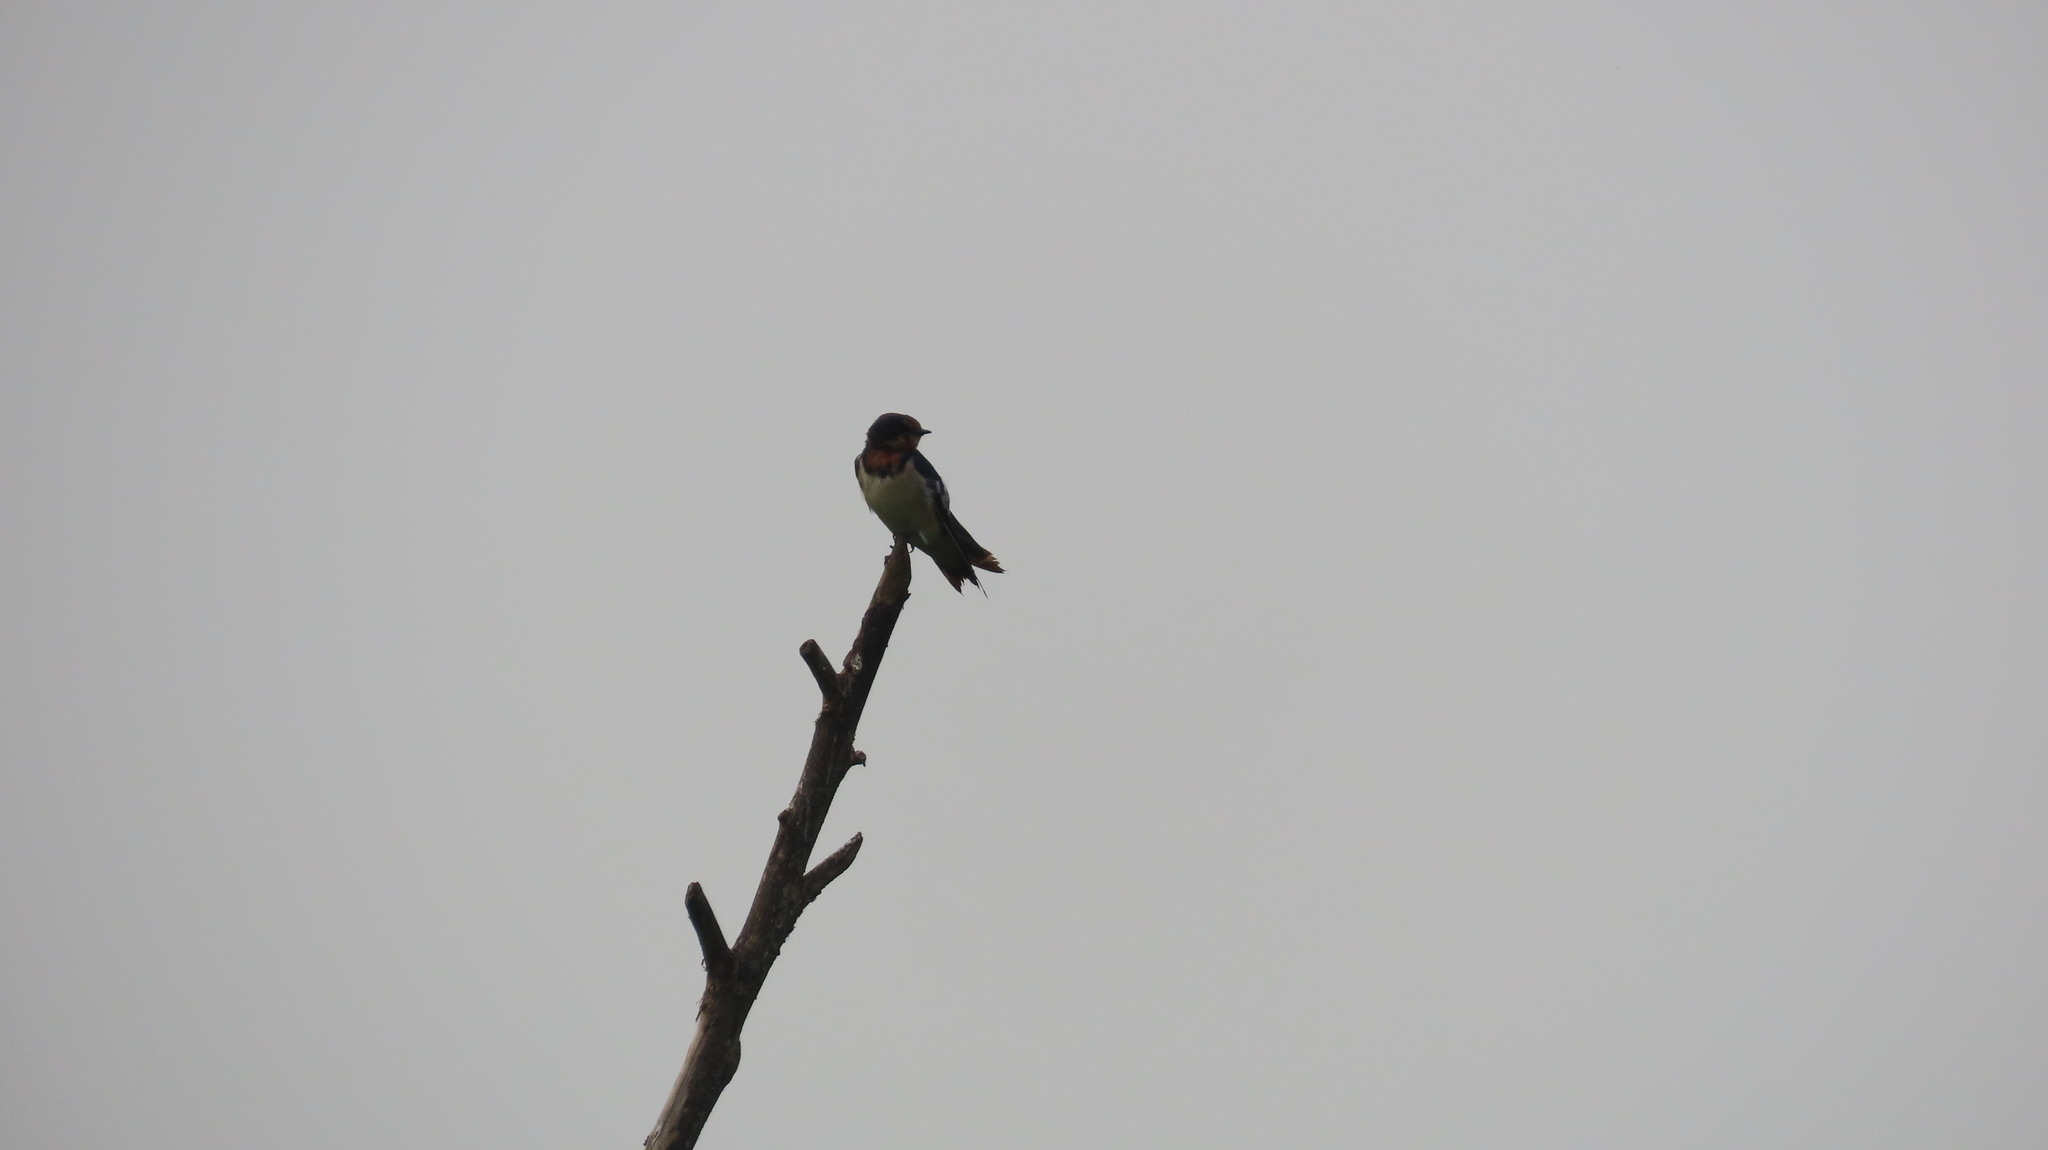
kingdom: Animalia
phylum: Chordata
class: Aves
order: Passeriformes
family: Hirundinidae
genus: Hirundo
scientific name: Hirundo rustica
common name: Barn swallow
